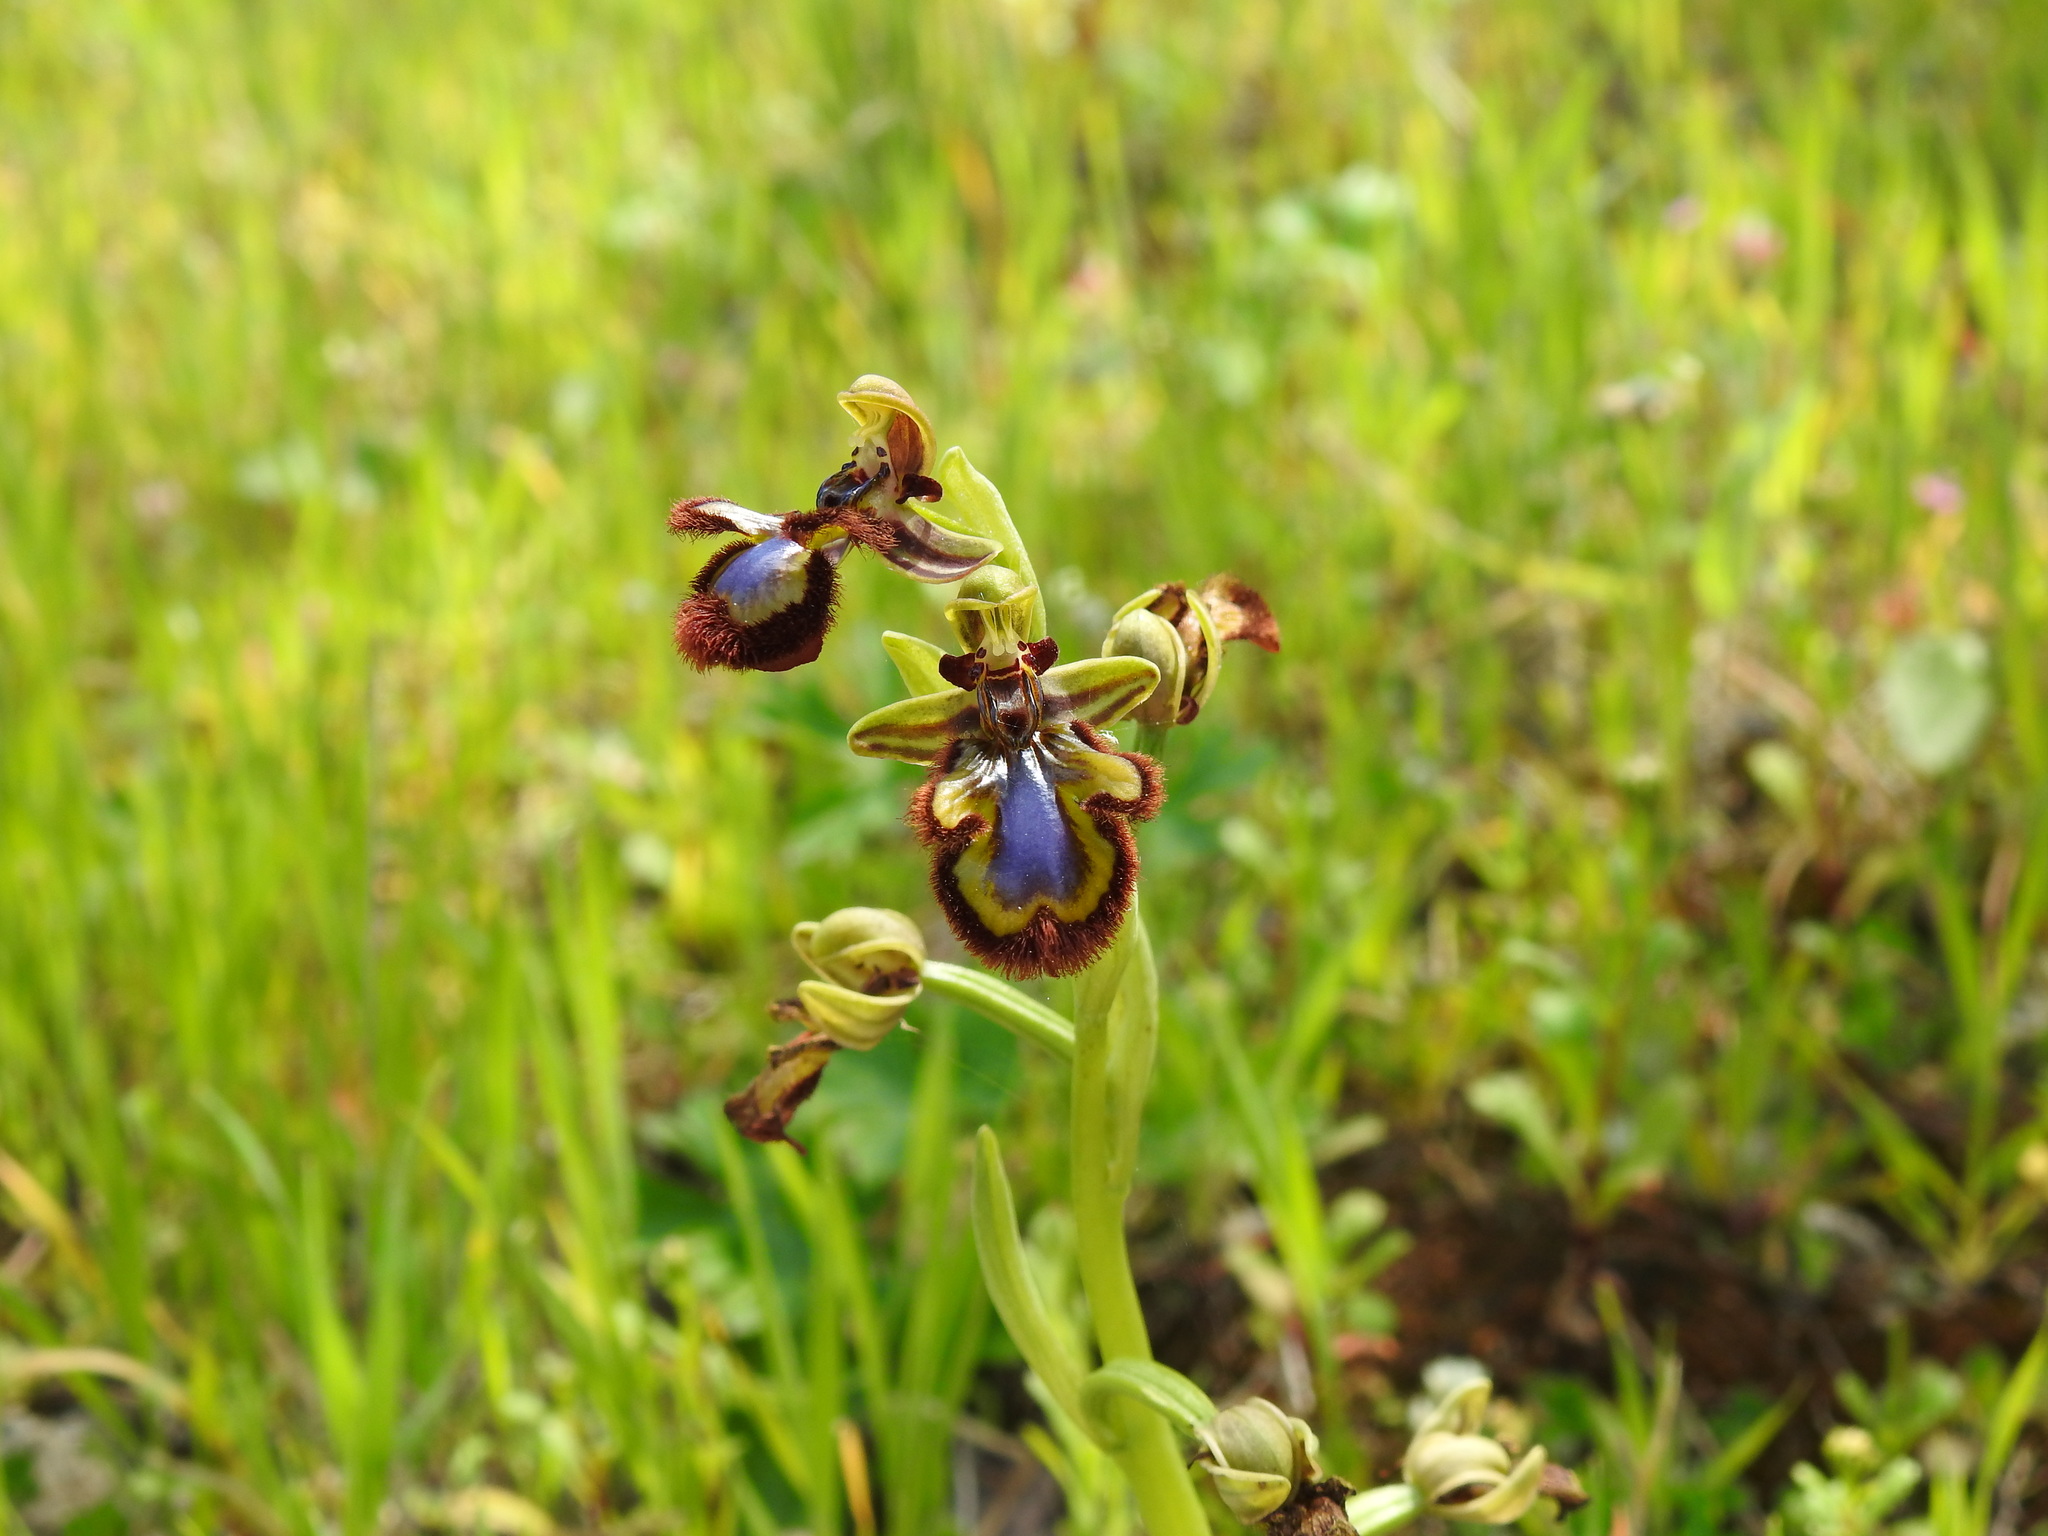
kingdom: Plantae
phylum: Tracheophyta
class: Liliopsida
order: Asparagales
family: Orchidaceae
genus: Ophrys
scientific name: Ophrys speculum
